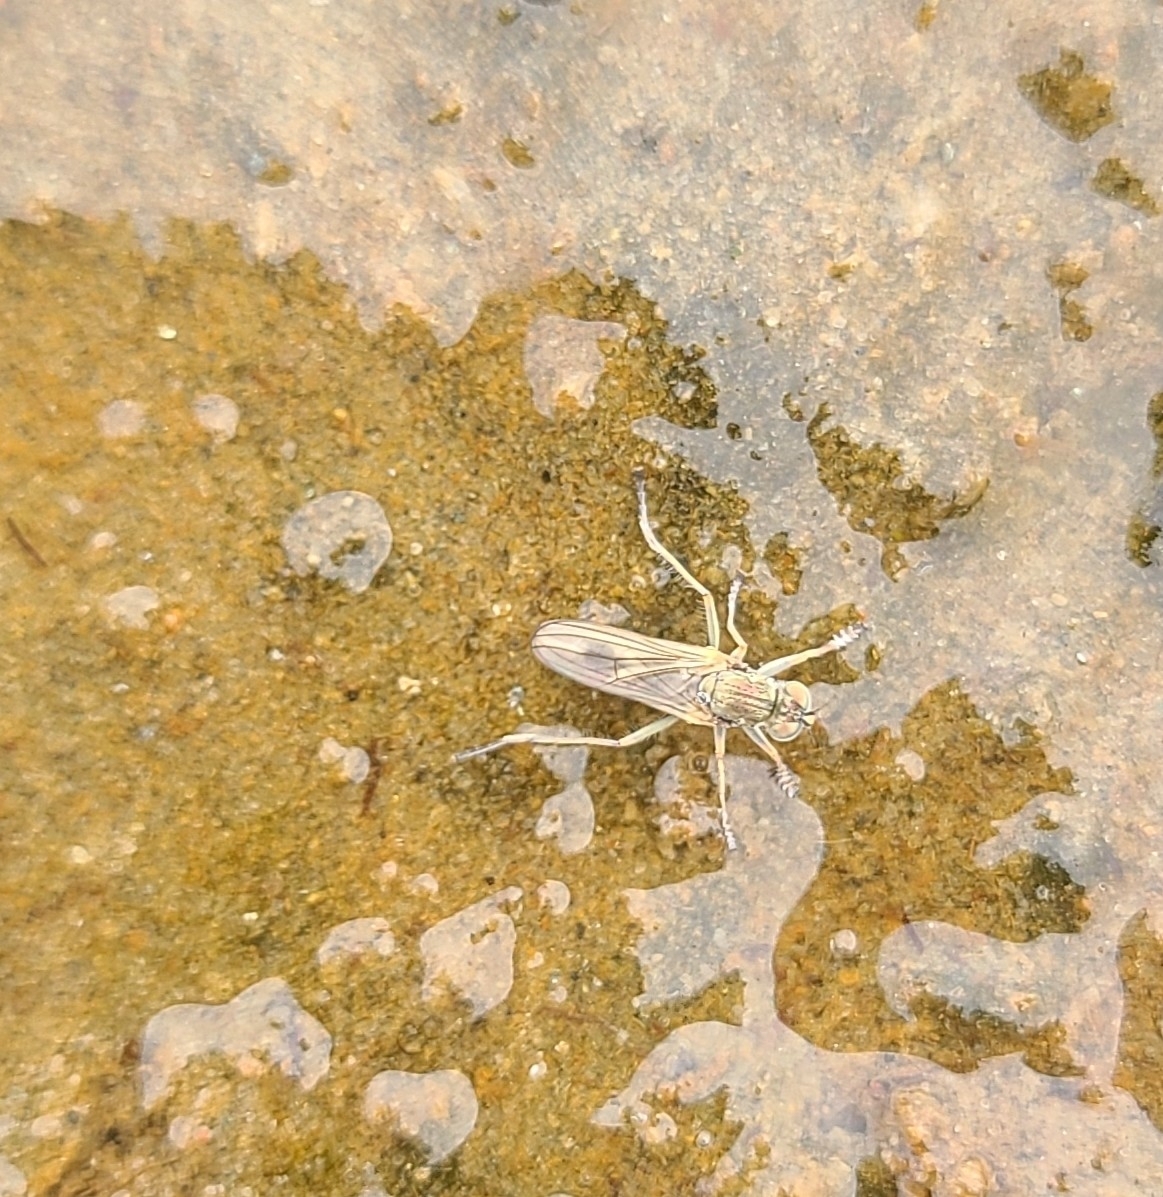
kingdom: Animalia
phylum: Arthropoda
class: Insecta
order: Diptera
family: Dolichopodidae
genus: Scorpiurus
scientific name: Scorpiurus aramoana
